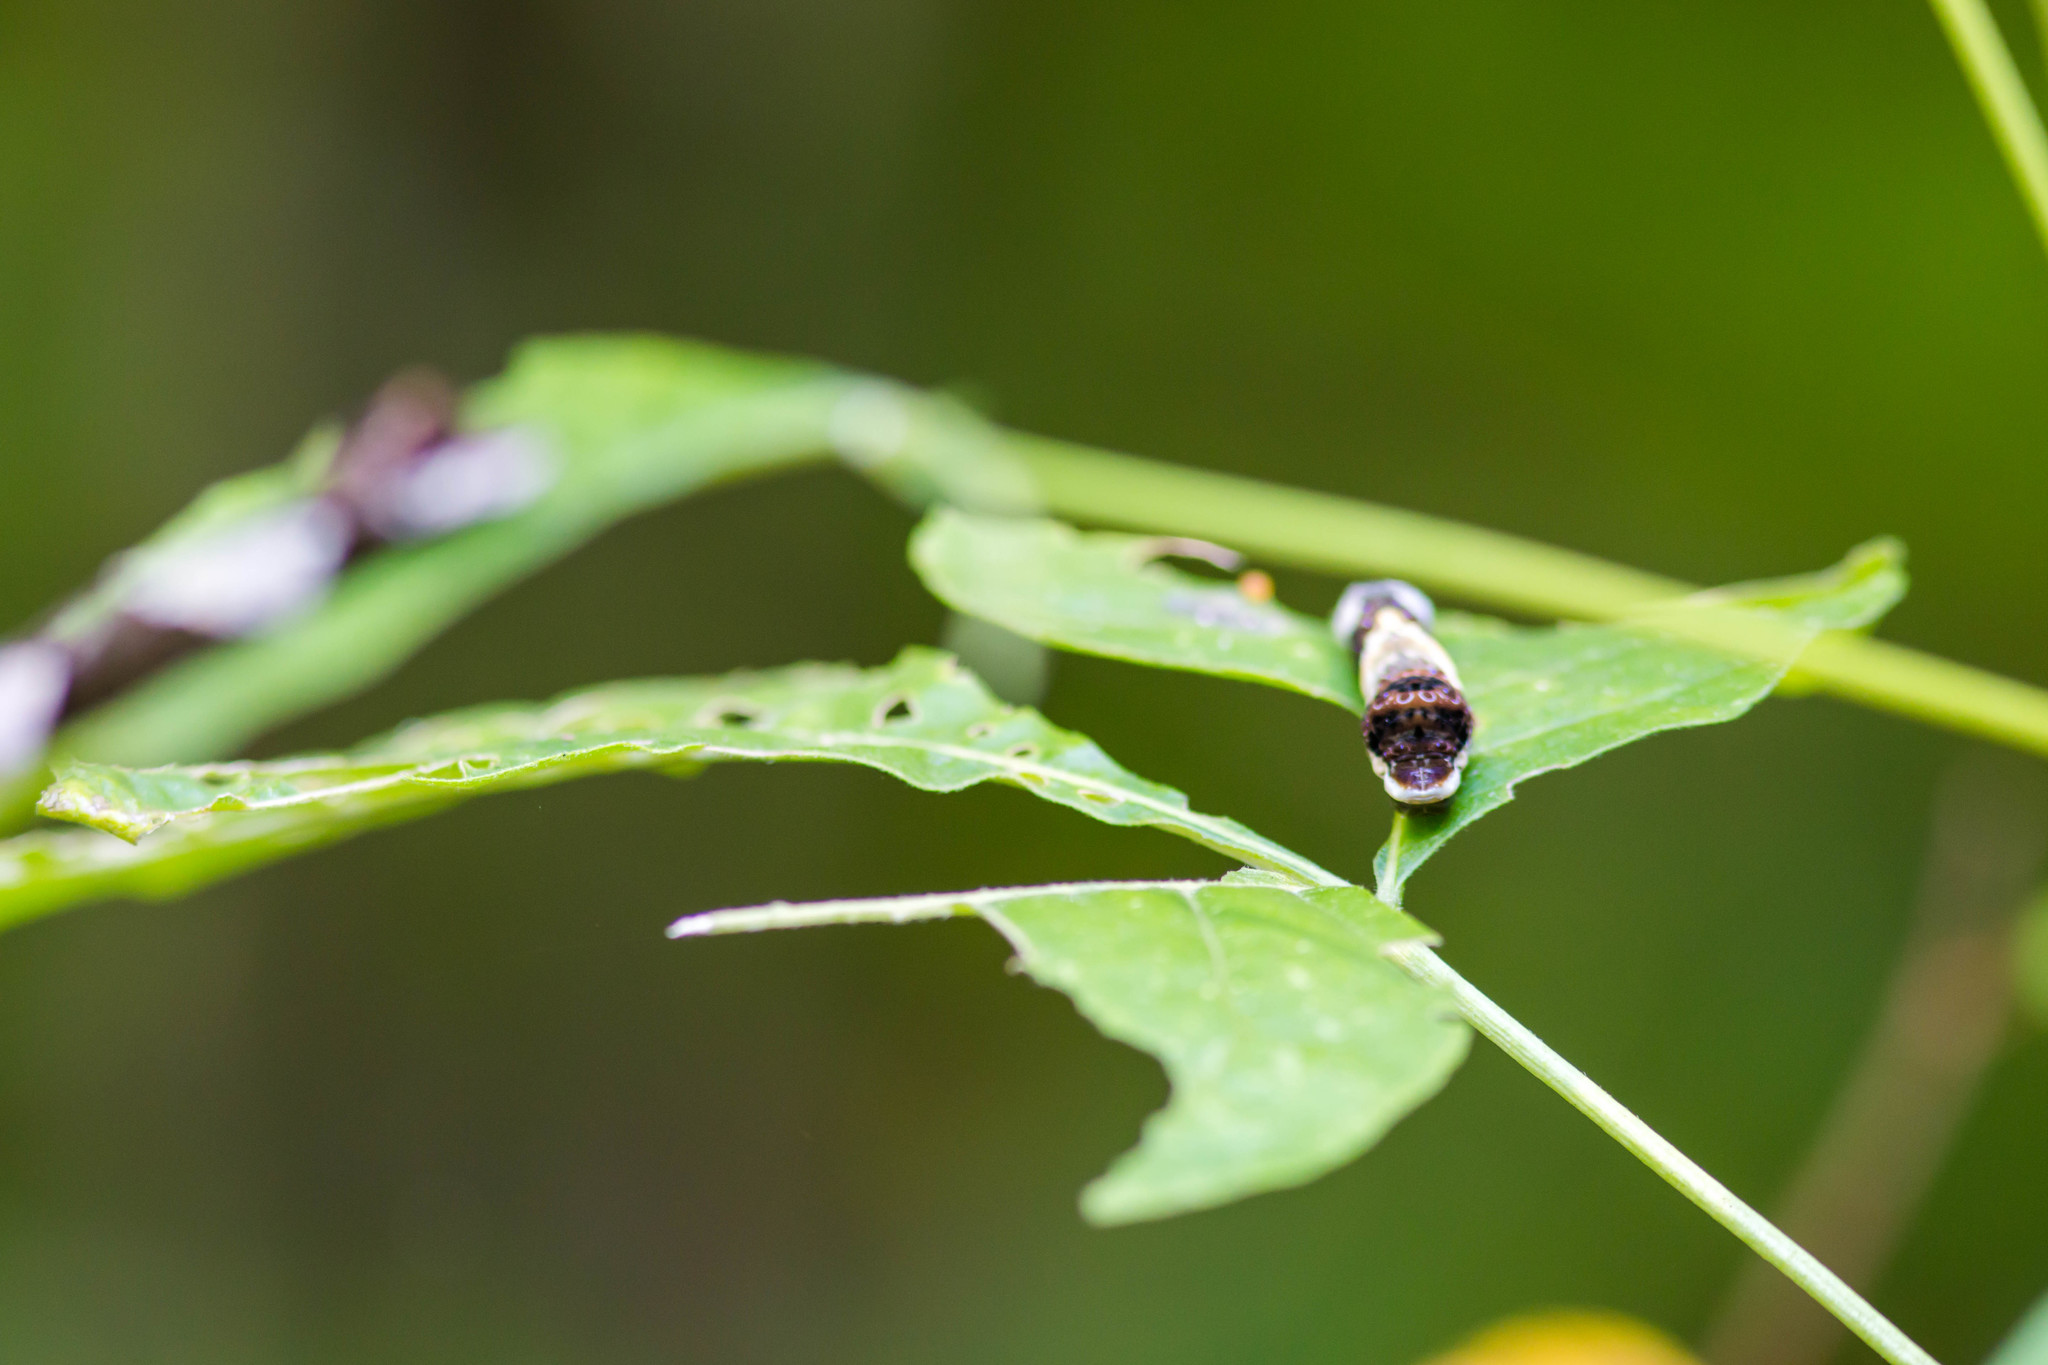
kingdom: Animalia
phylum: Arthropoda
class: Insecta
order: Lepidoptera
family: Papilionidae
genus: Papilio
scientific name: Papilio cresphontes
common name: Giant swallowtail
